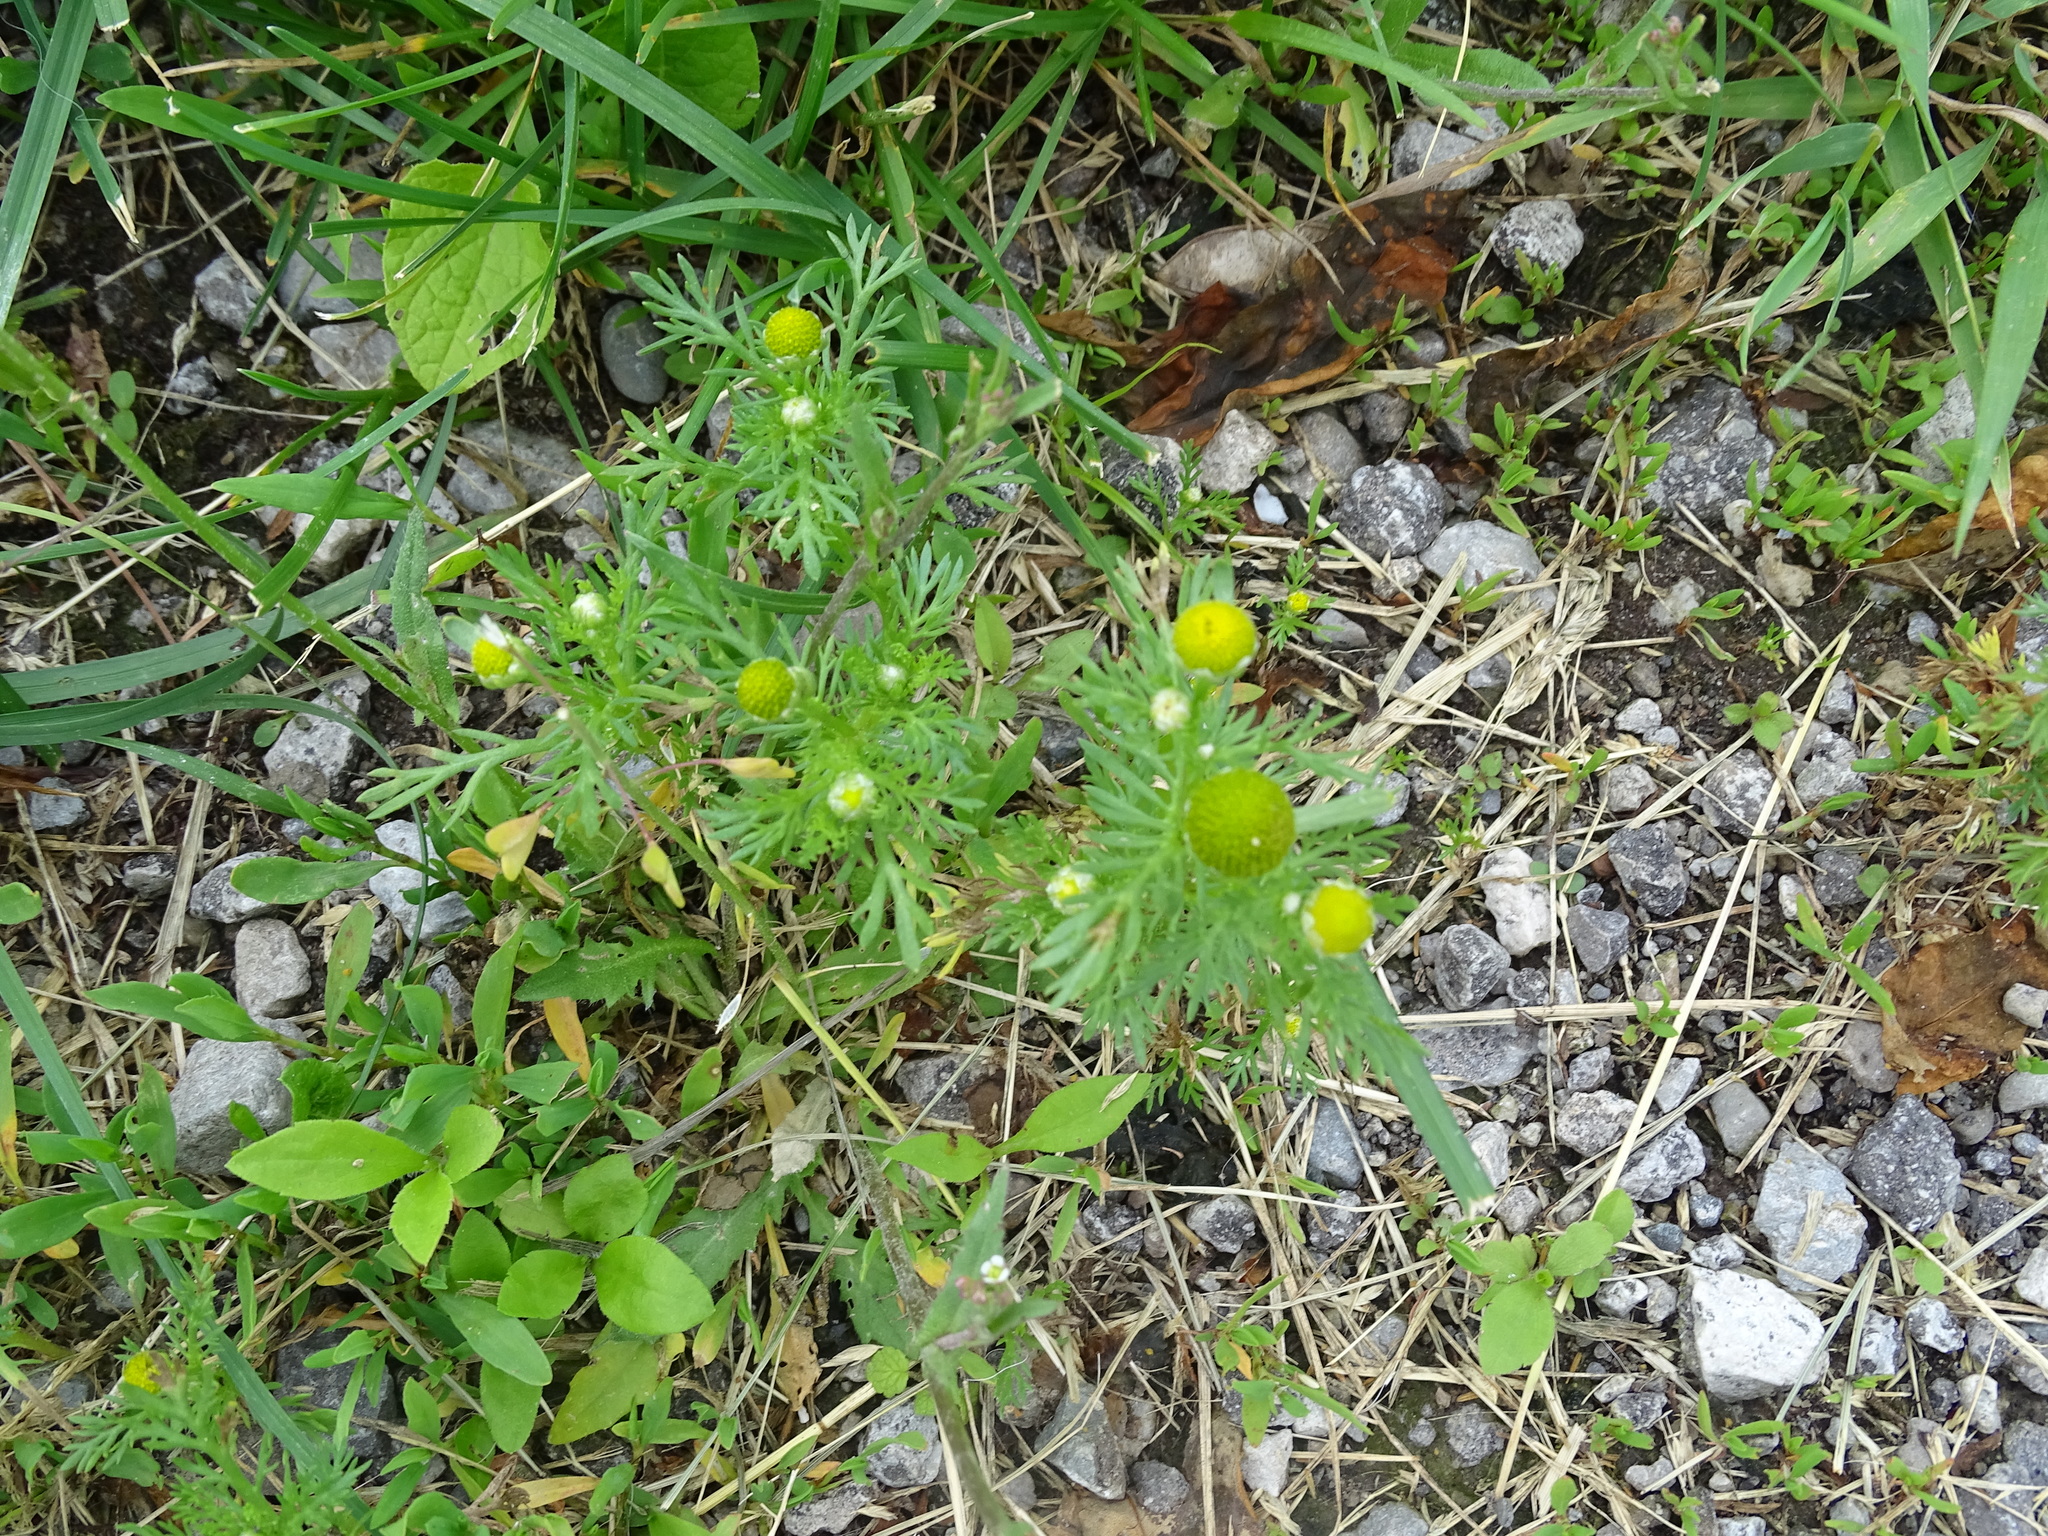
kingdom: Plantae
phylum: Tracheophyta
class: Magnoliopsida
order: Asterales
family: Asteraceae
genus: Matricaria
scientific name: Matricaria discoidea
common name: Disc mayweed
